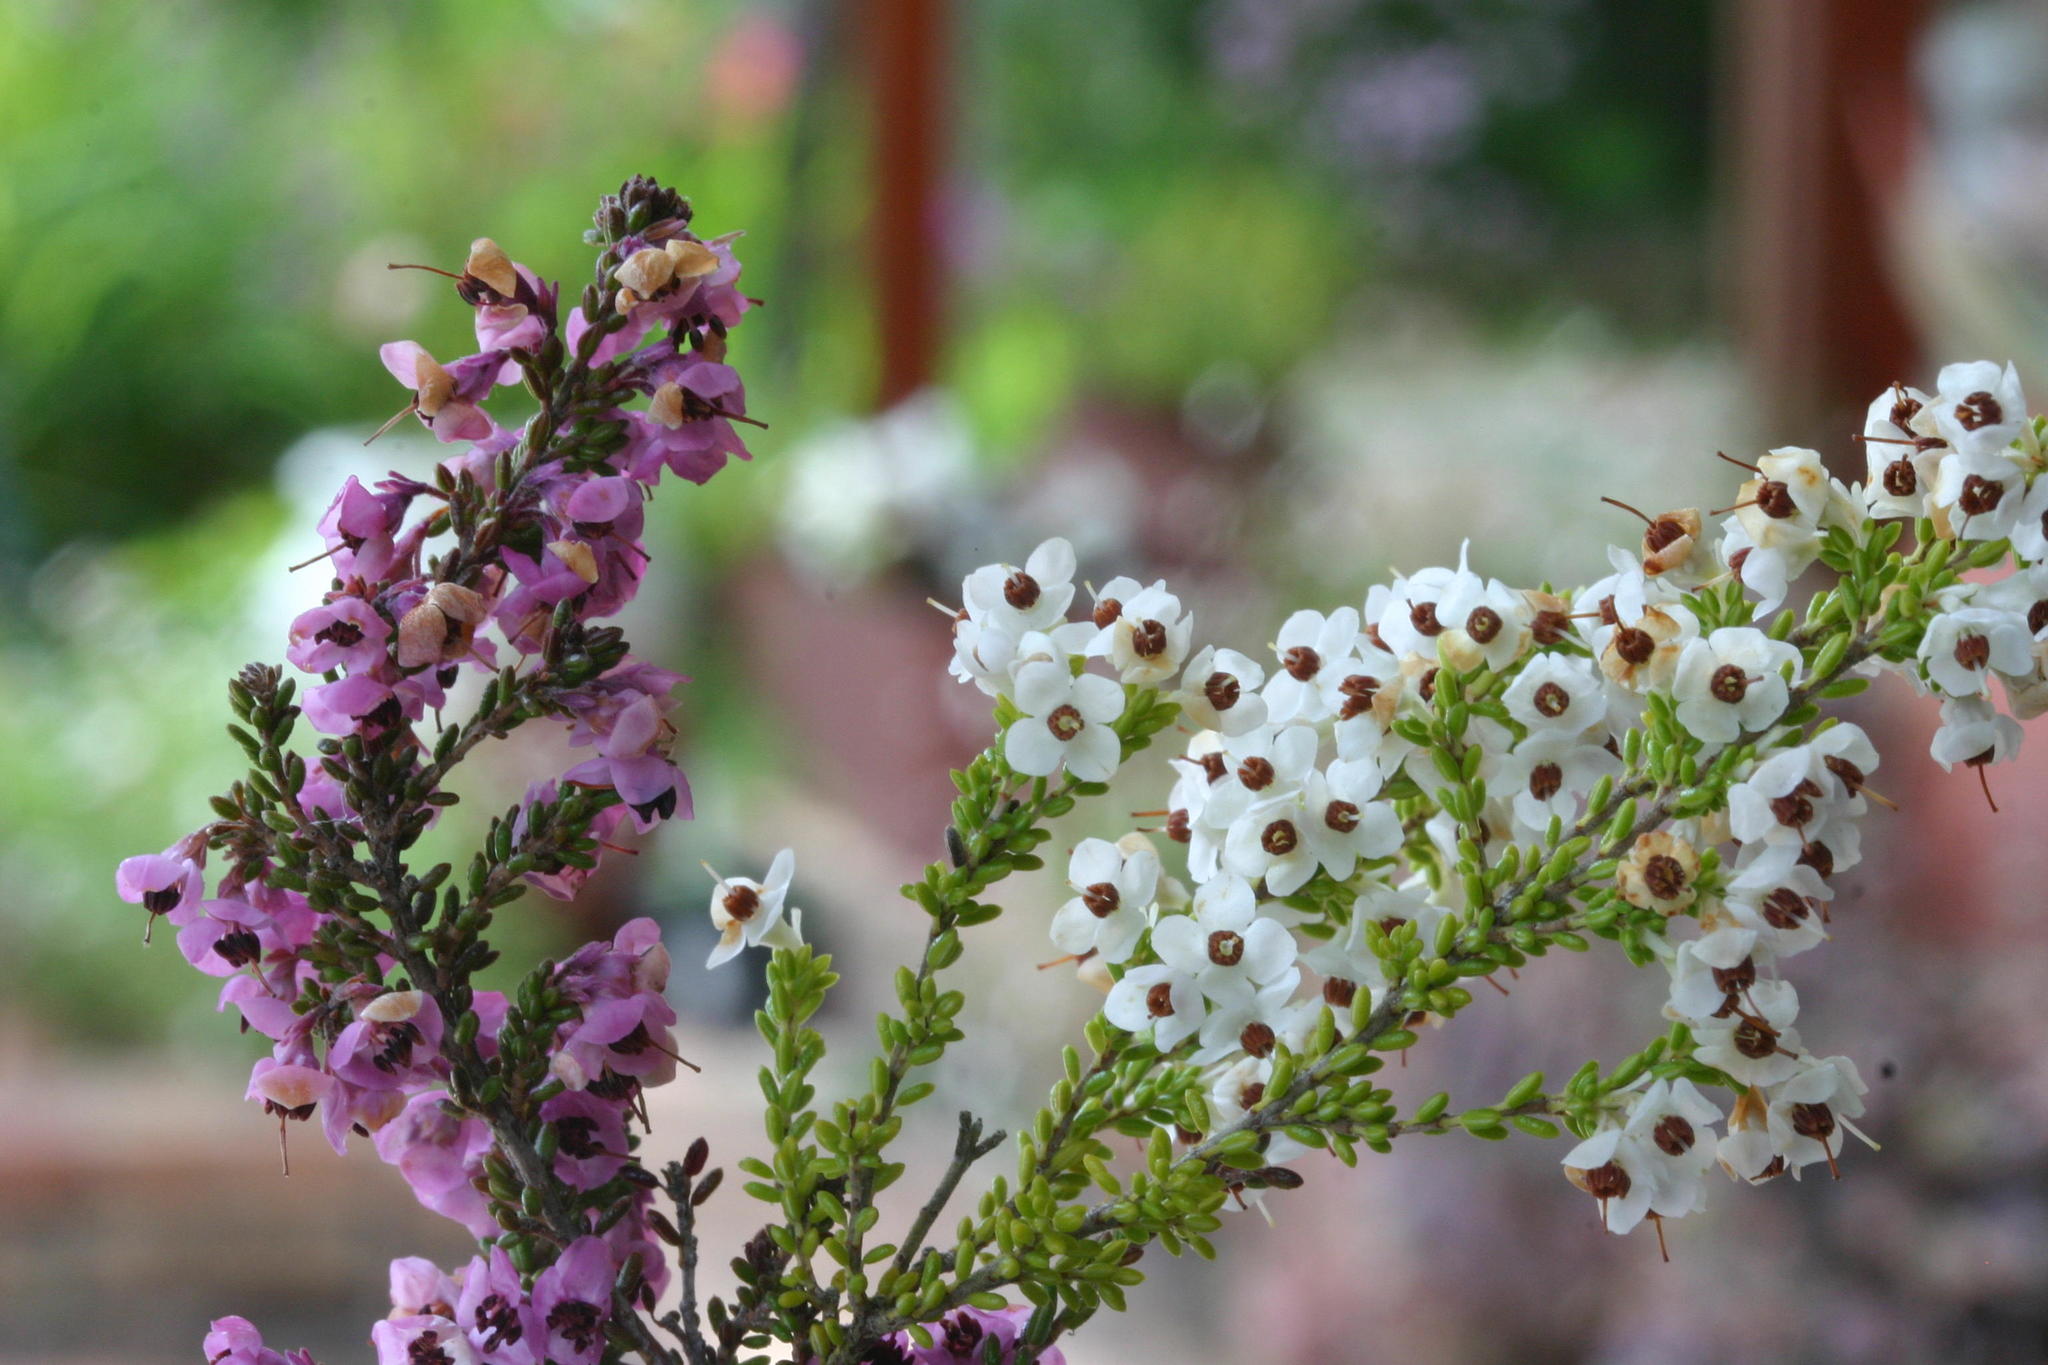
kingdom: Plantae
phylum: Tracheophyta
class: Magnoliopsida
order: Ericales
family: Ericaceae
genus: Erica
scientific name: Erica melanthera
